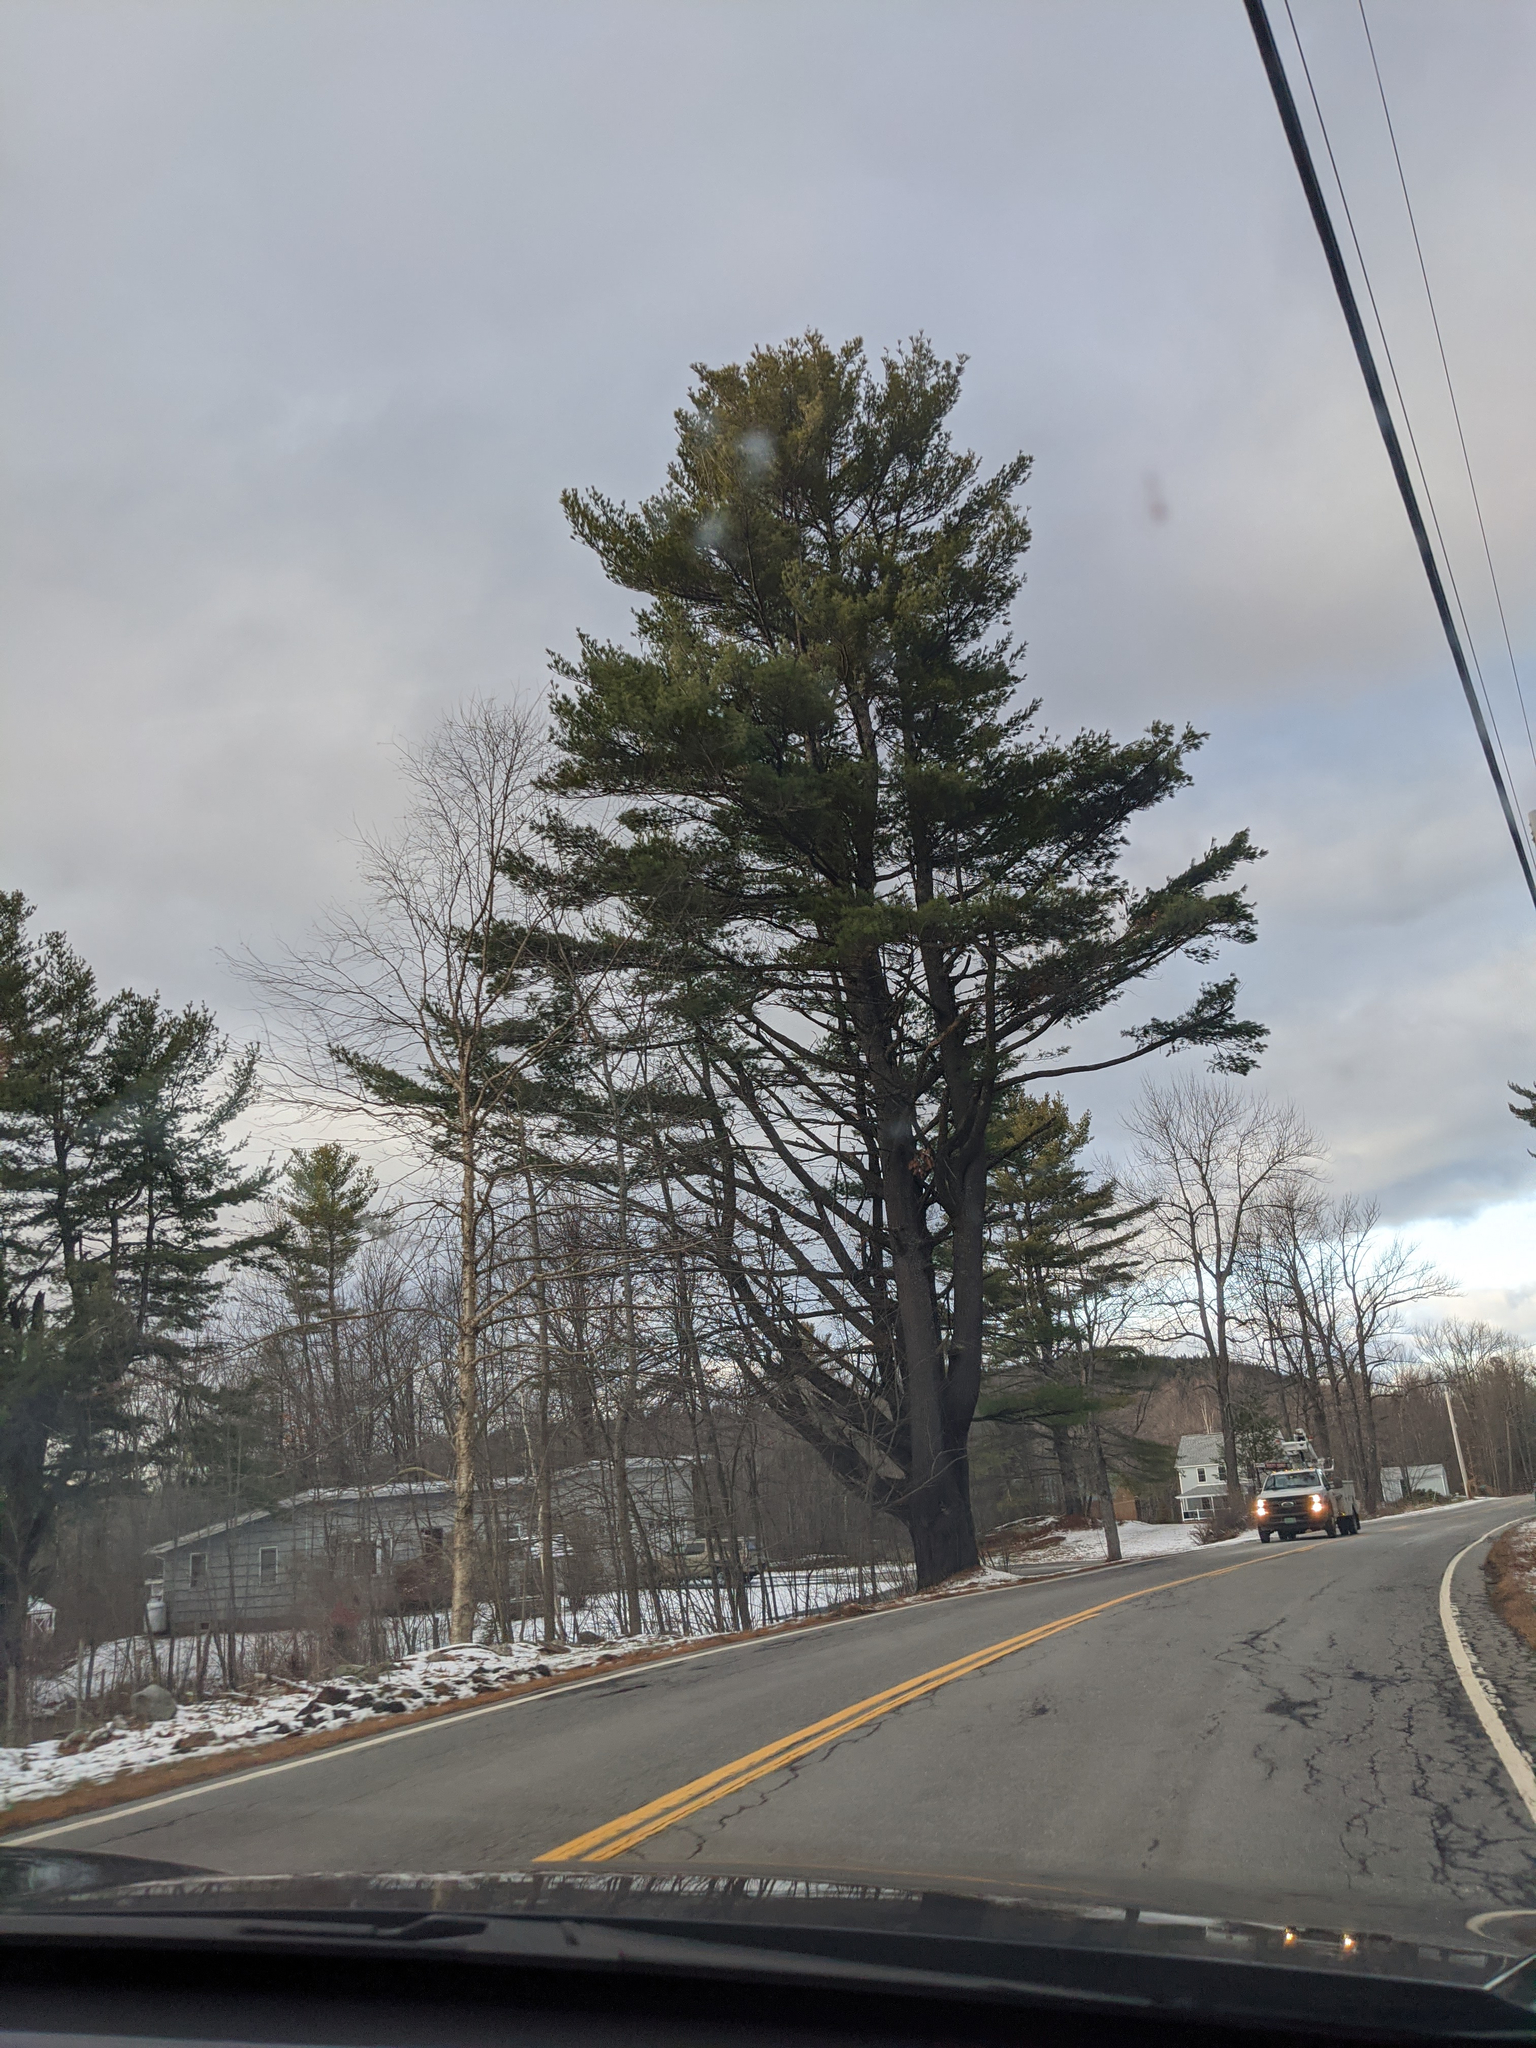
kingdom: Plantae
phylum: Tracheophyta
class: Pinopsida
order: Pinales
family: Pinaceae
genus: Pinus
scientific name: Pinus strobus
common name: Weymouth pine
